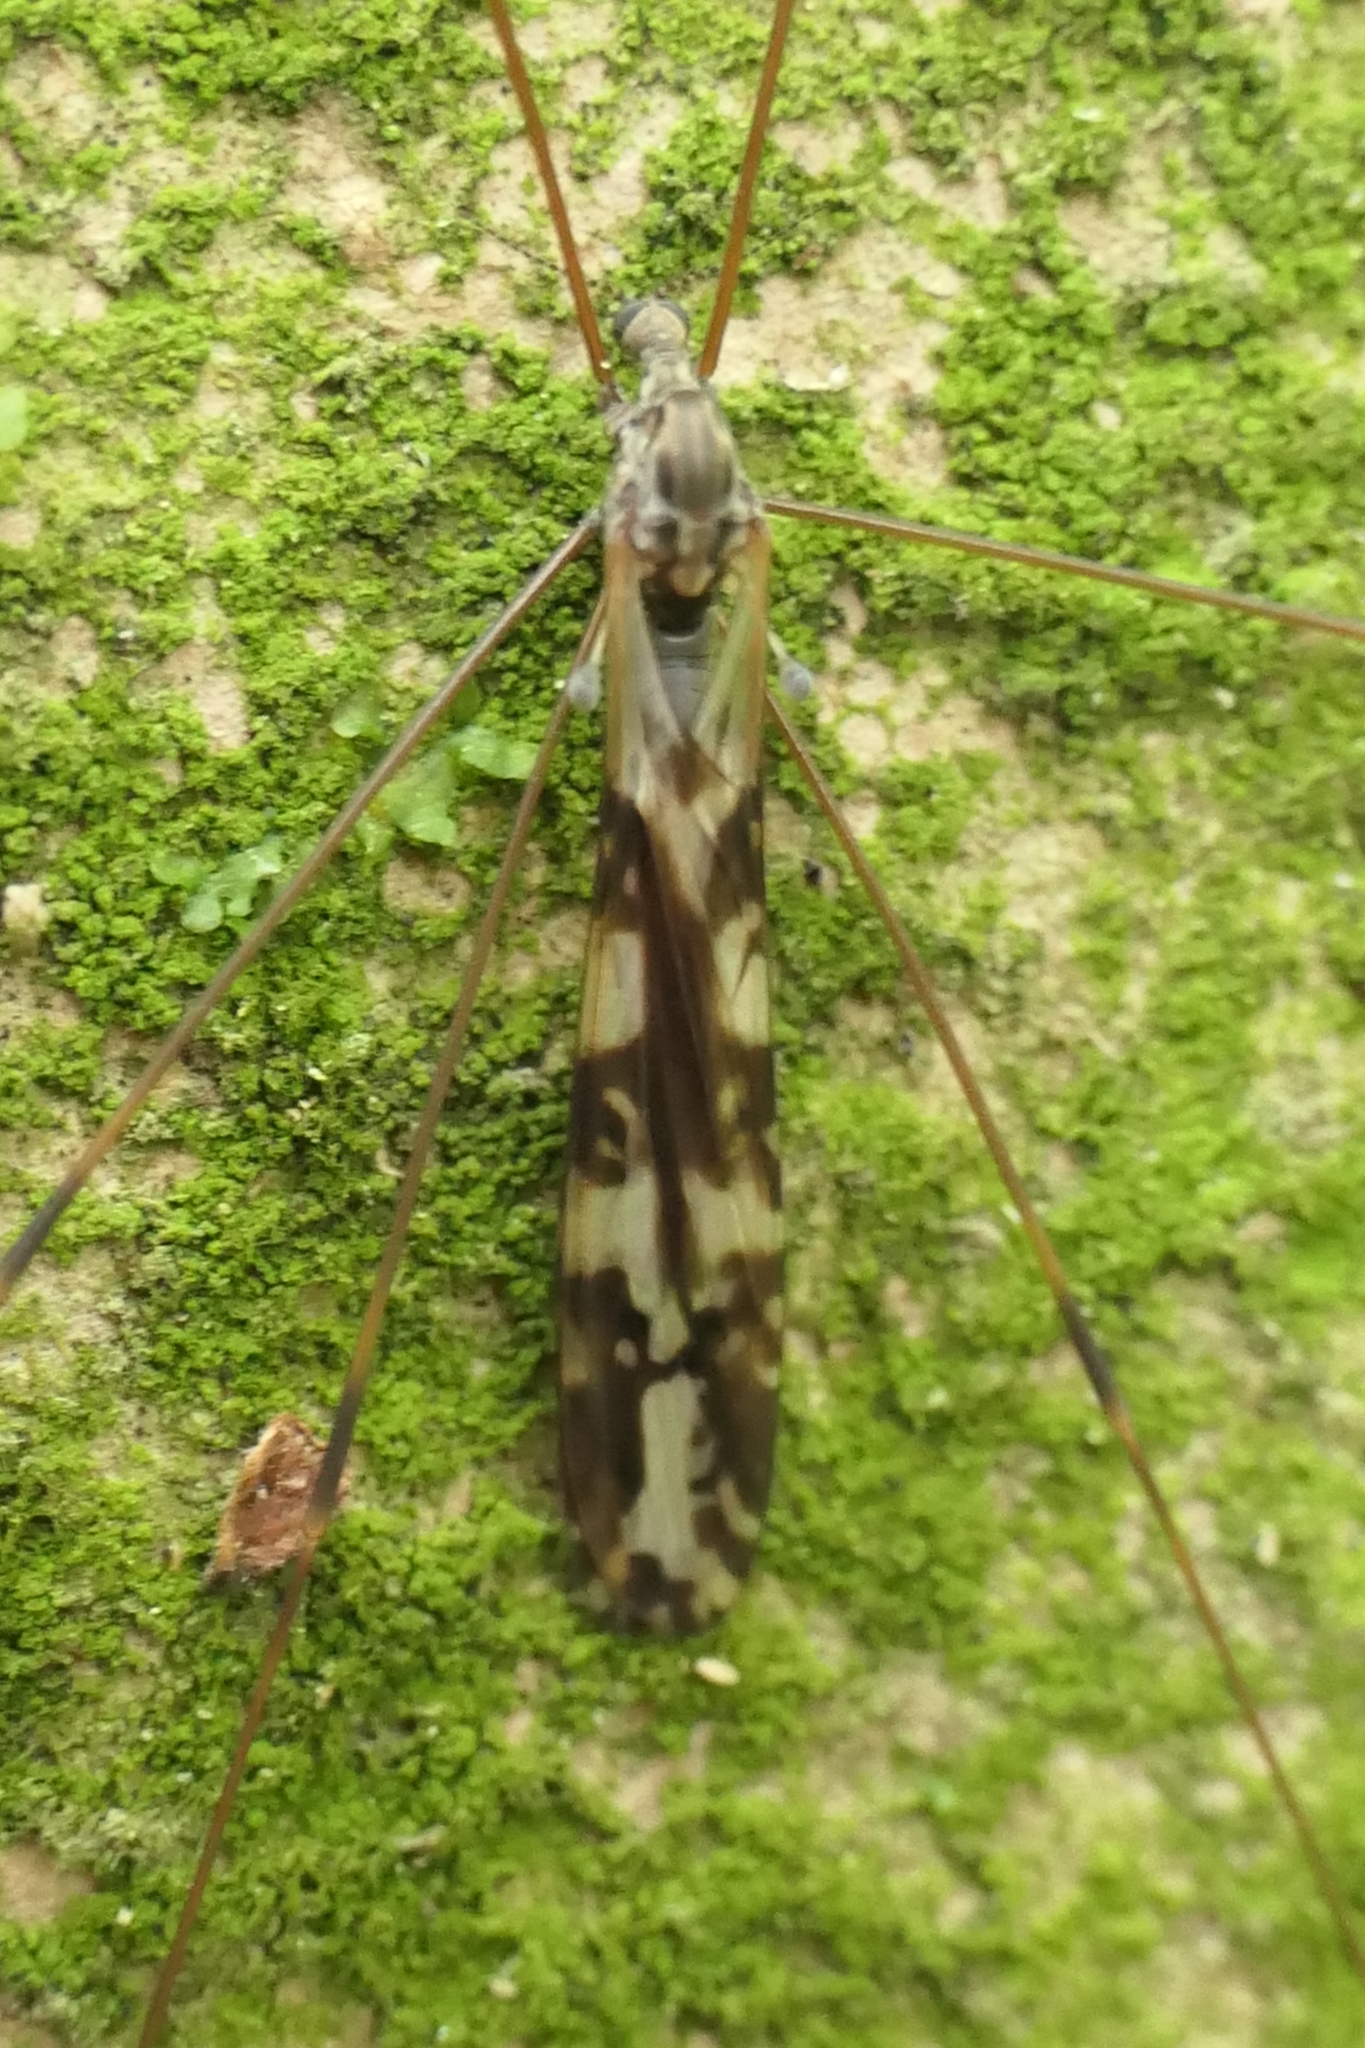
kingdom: Animalia
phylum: Arthropoda
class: Insecta
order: Diptera
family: Limoniidae
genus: Discobola
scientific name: Discobola dohrni
